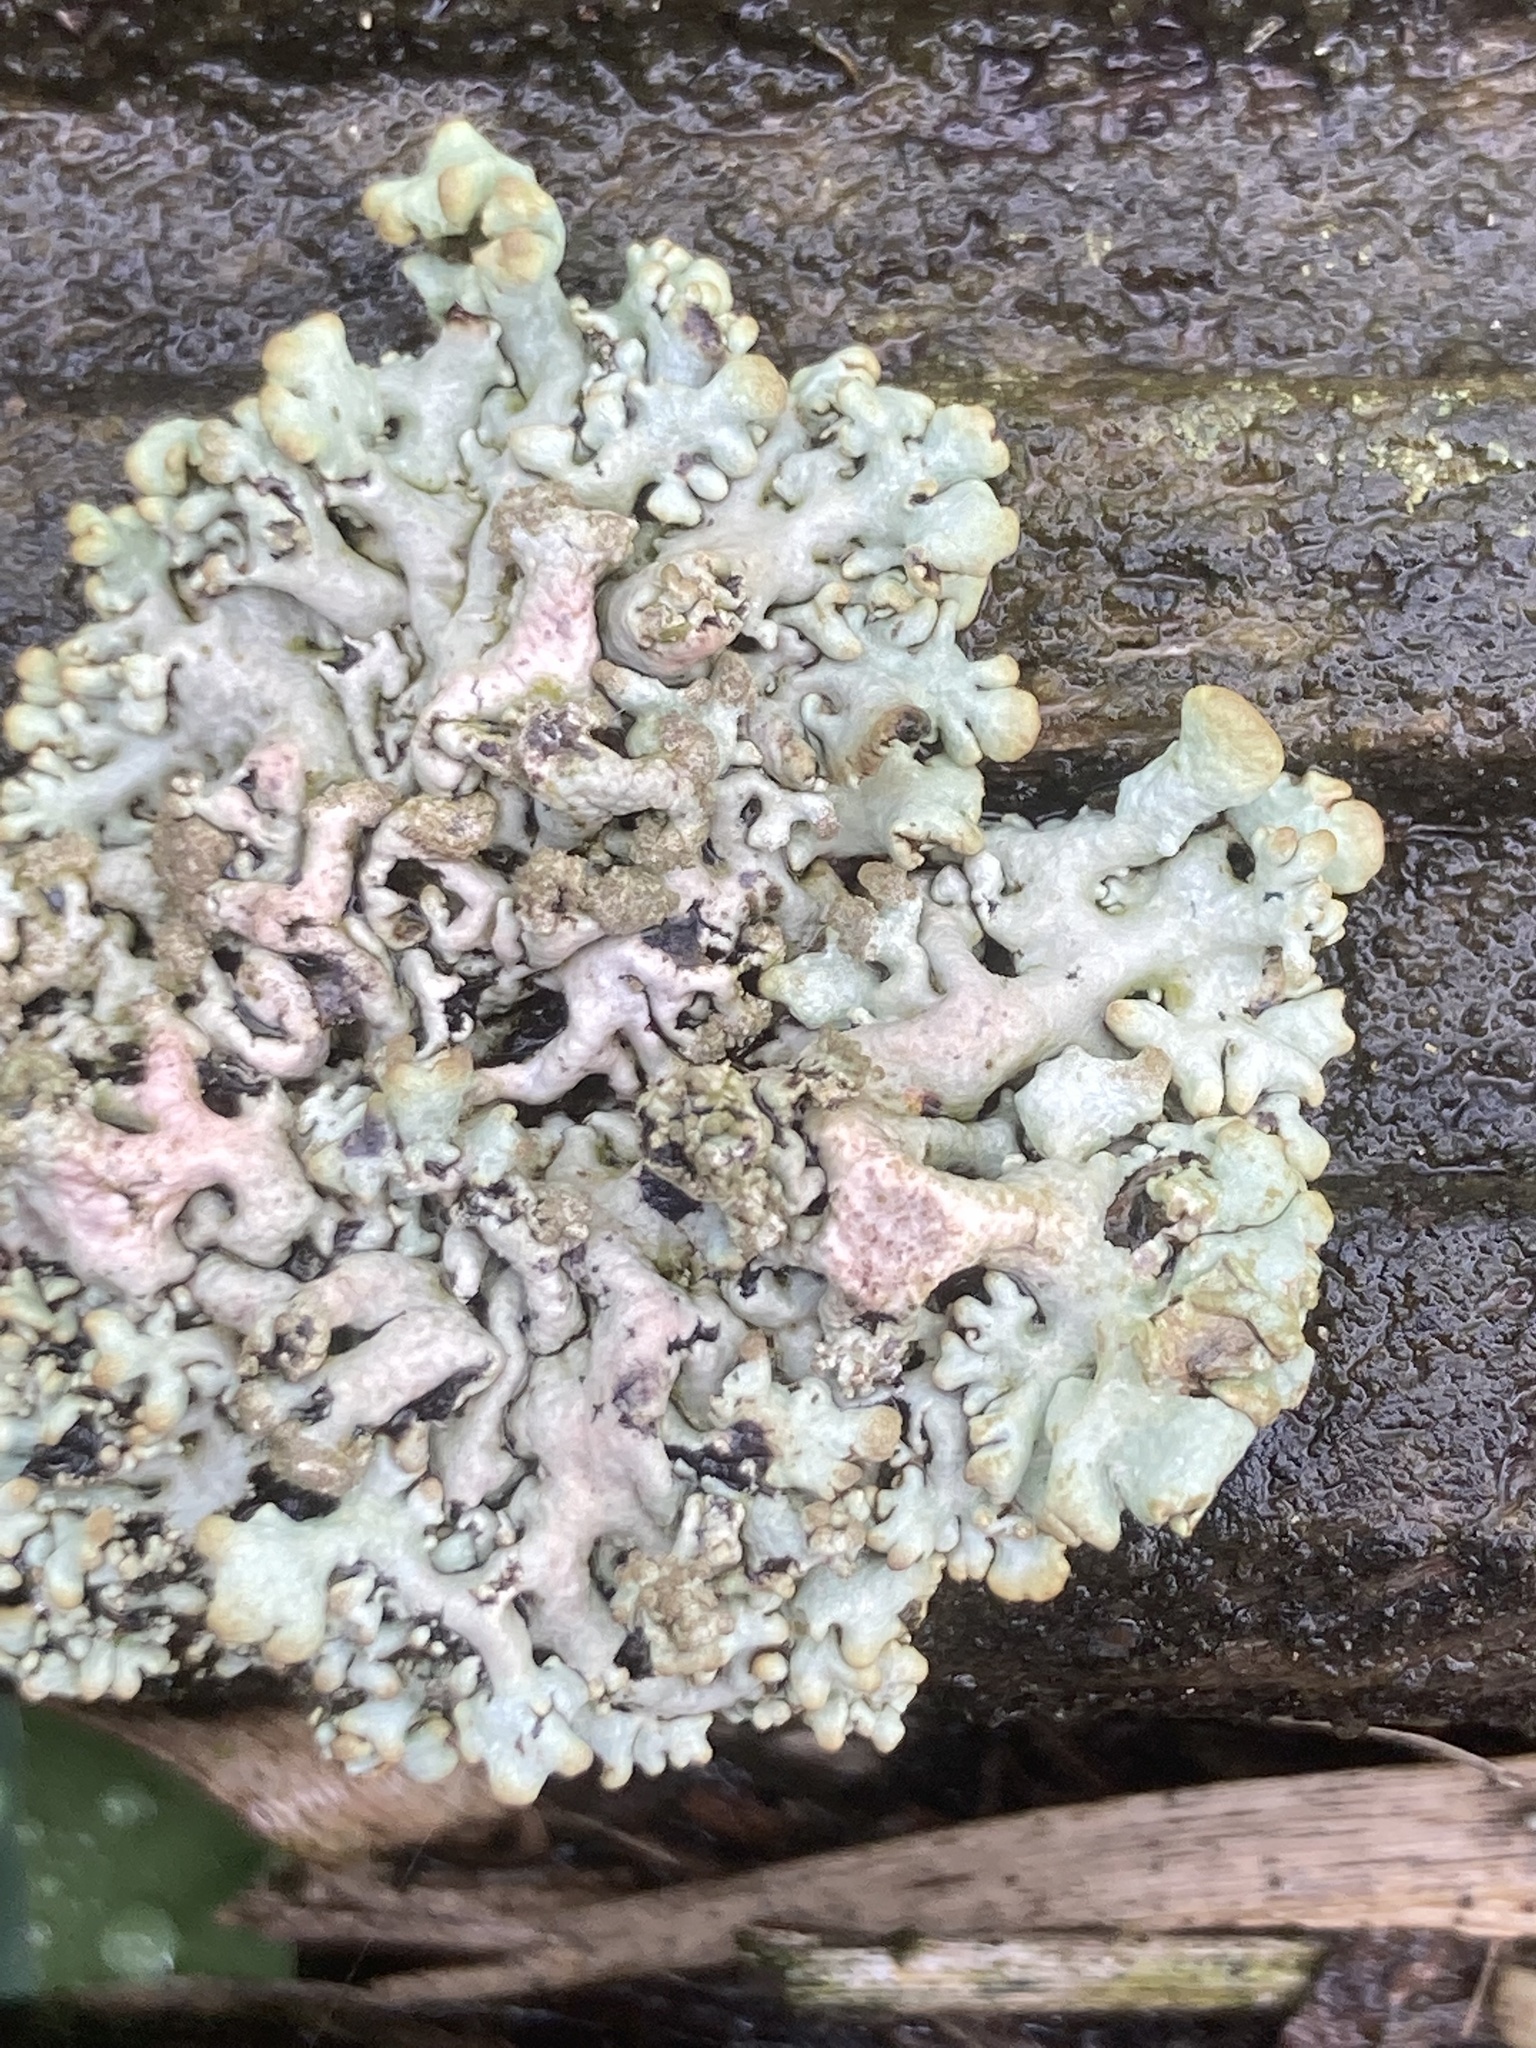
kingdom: Fungi
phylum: Ascomycota
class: Lecanoromycetes
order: Lecanorales
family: Parmeliaceae
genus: Hypogymnia
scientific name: Hypogymnia tubulosa
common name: Powder-headed tube lichen
